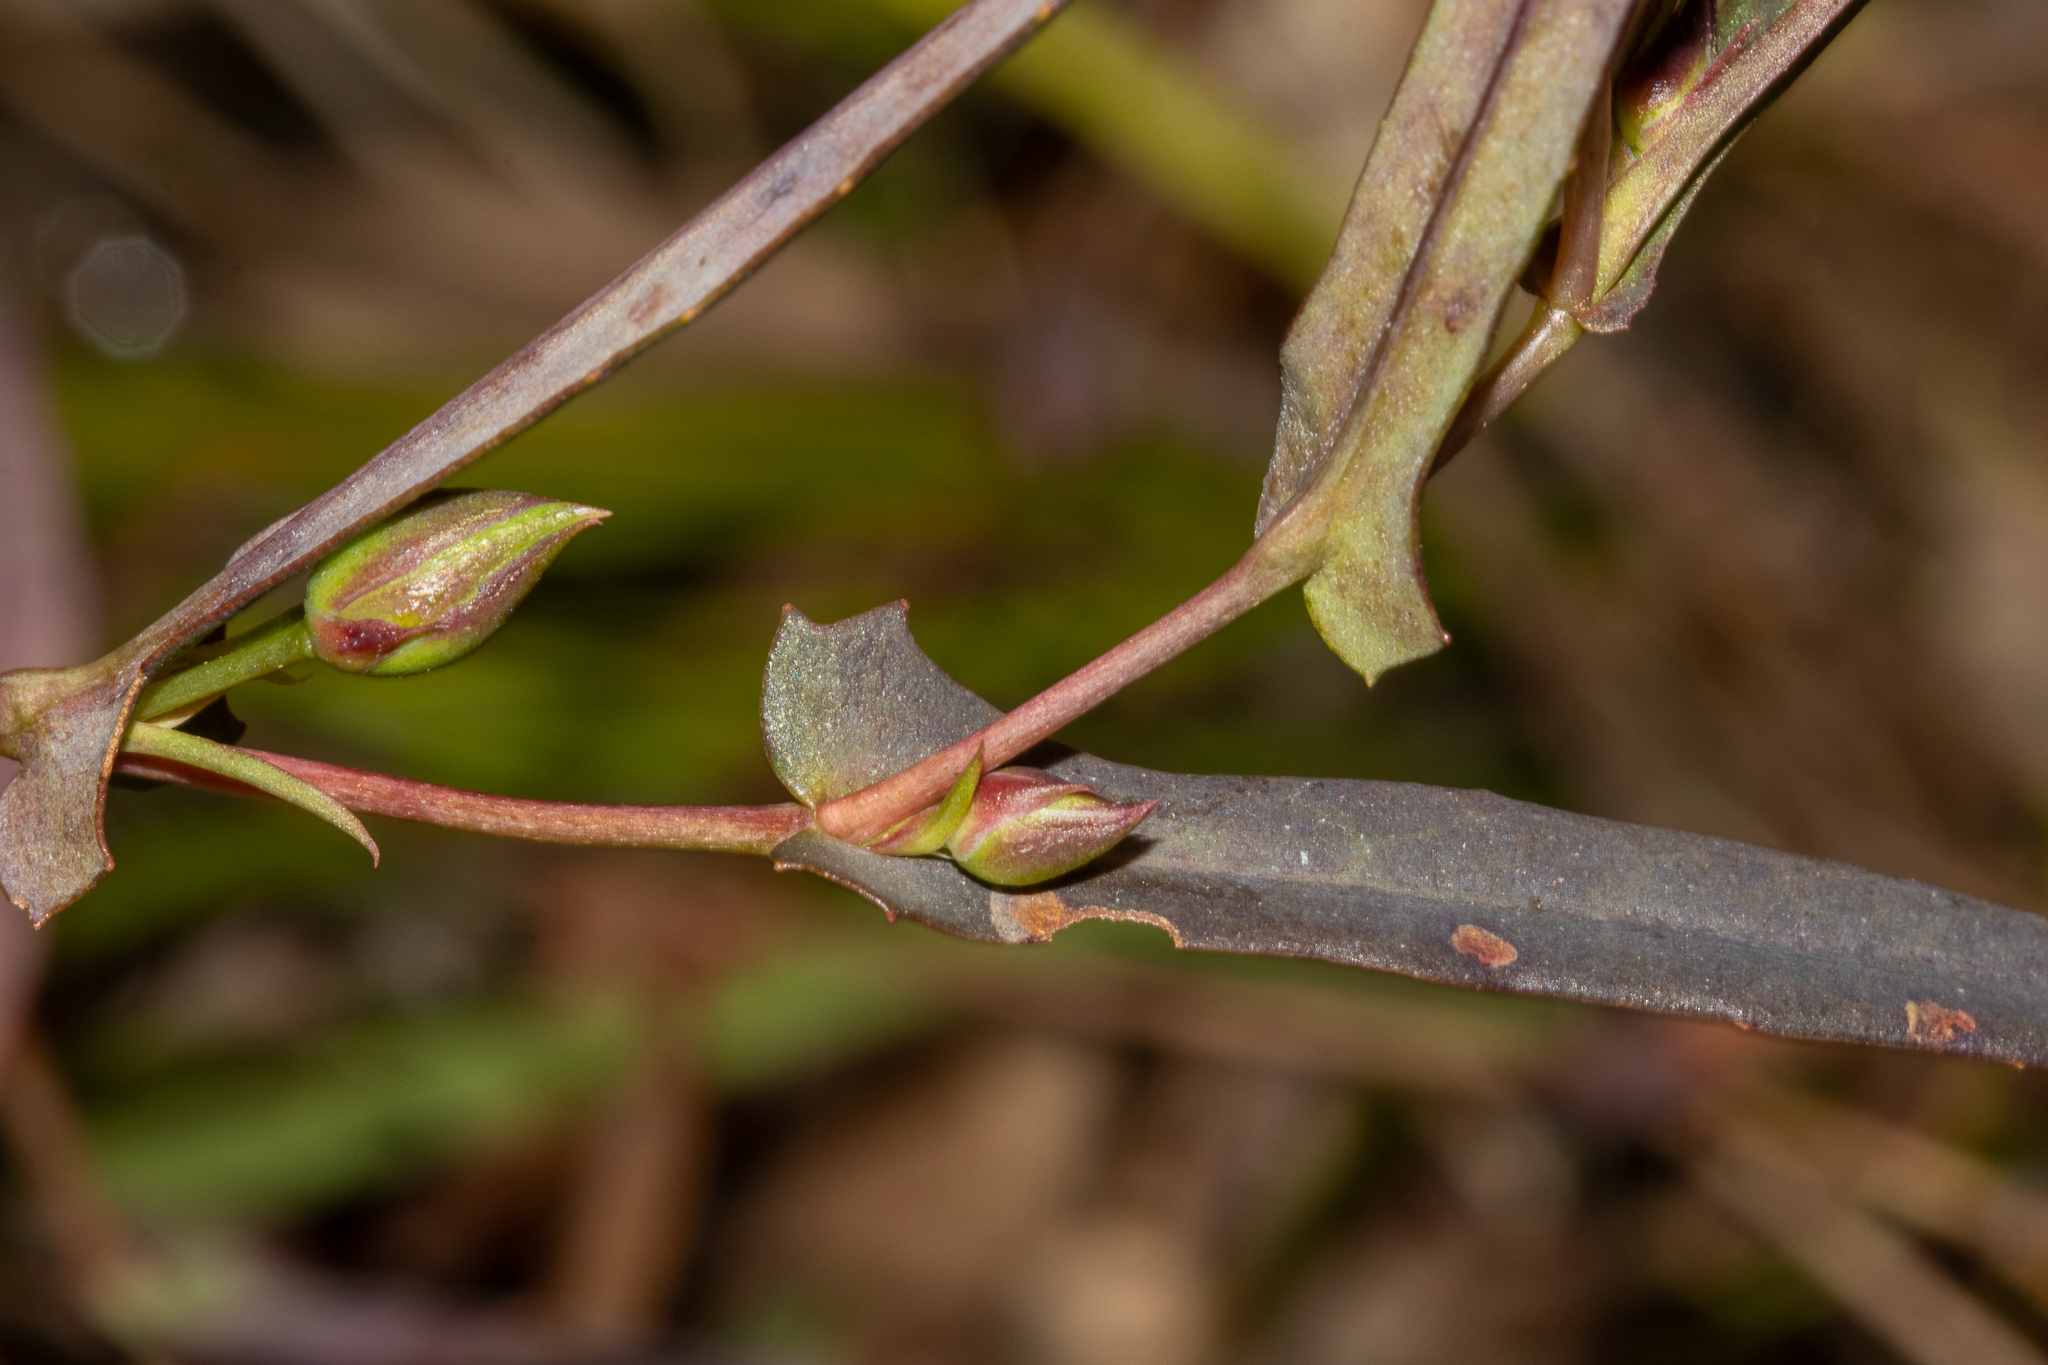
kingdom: Plantae
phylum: Tracheophyta
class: Magnoliopsida
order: Dilleniales
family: Dilleniaceae
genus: Hibbertia
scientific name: Hibbertia cunninghamii
